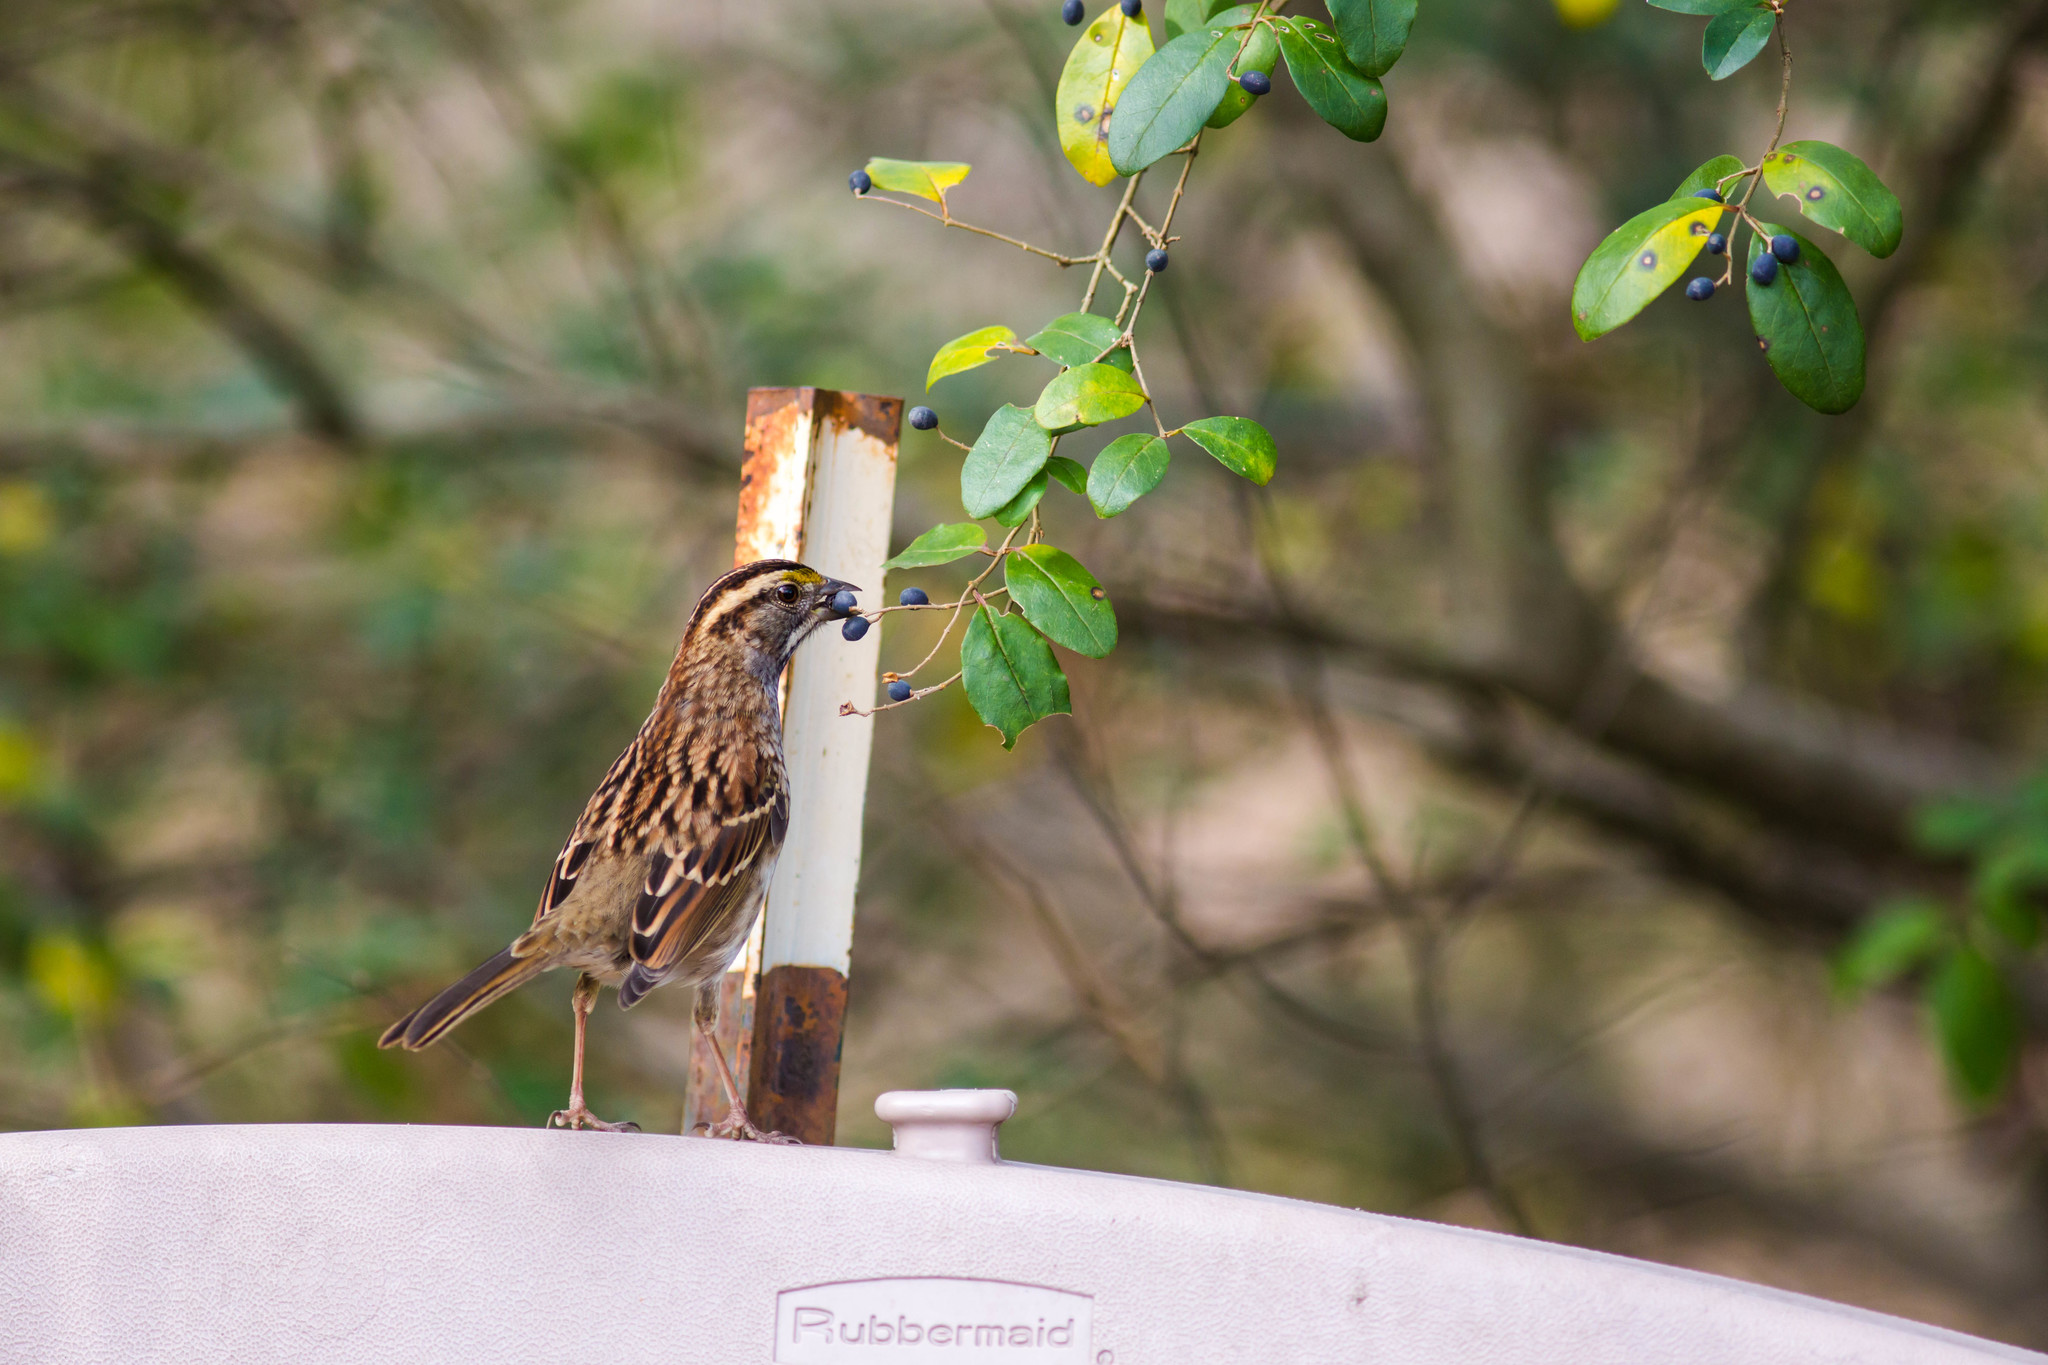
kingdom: Animalia
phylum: Chordata
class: Aves
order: Passeriformes
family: Passerellidae
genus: Zonotrichia
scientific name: Zonotrichia albicollis
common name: White-throated sparrow
